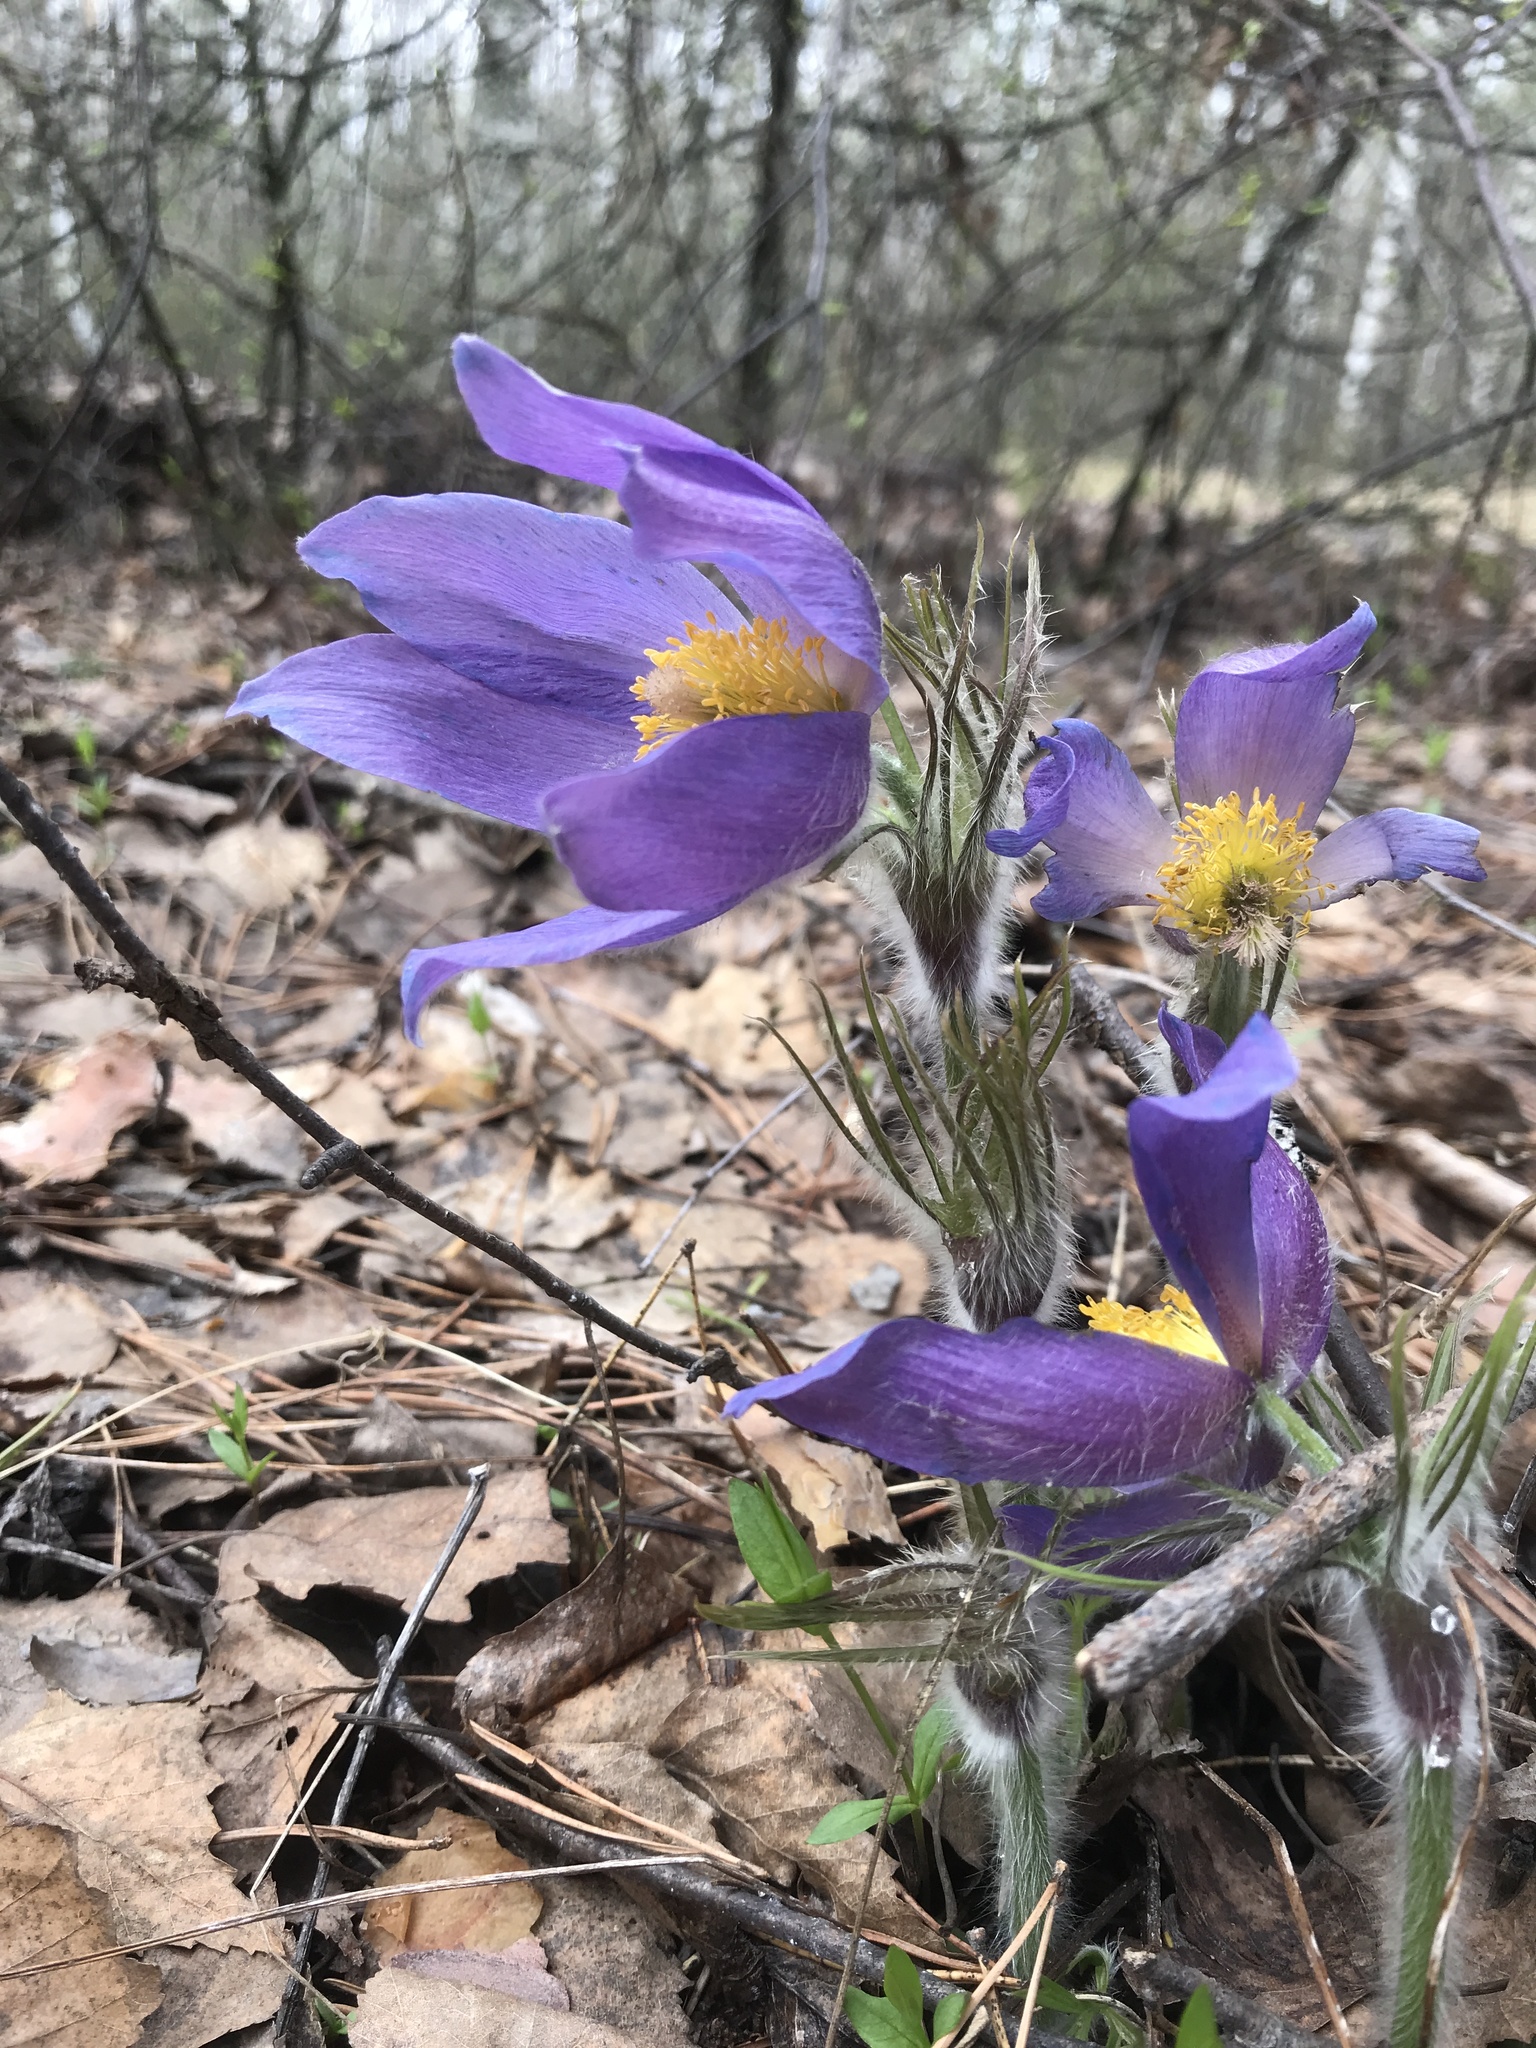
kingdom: Plantae
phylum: Tracheophyta
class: Magnoliopsida
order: Ranunculales
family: Ranunculaceae
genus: Pulsatilla
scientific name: Pulsatilla patens
